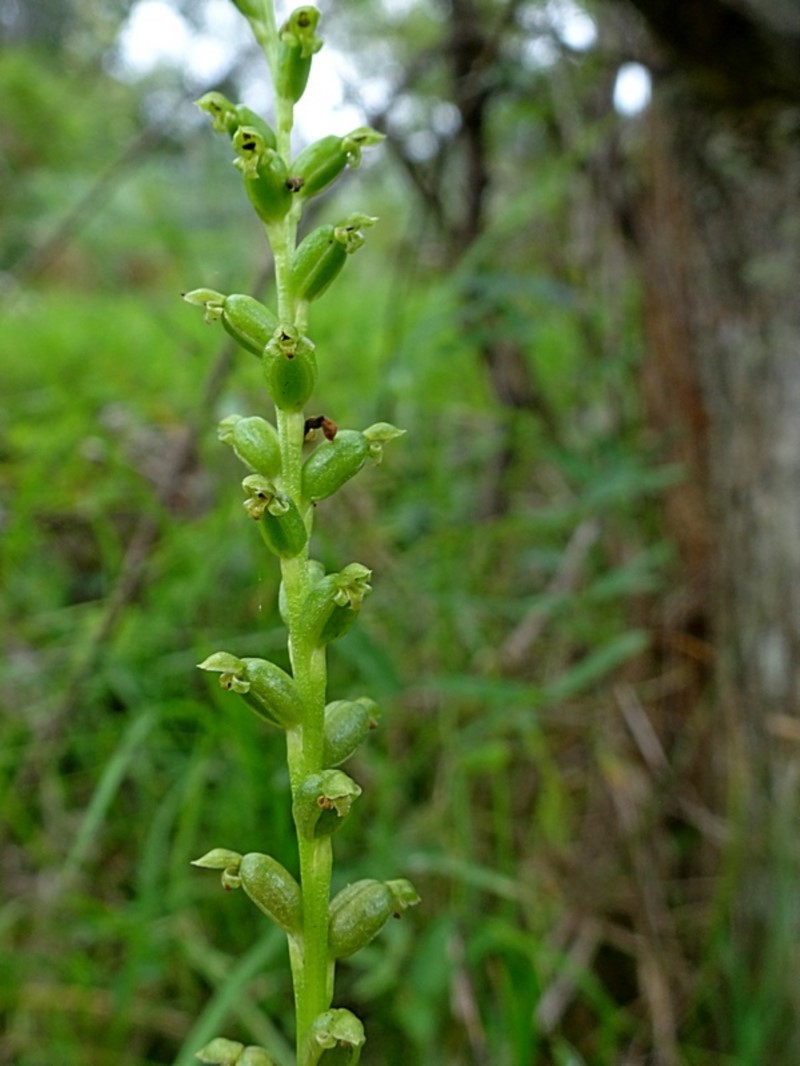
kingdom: Plantae
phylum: Tracheophyta
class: Liliopsida
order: Asparagales
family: Orchidaceae
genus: Microtis
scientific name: Microtis unifolia
